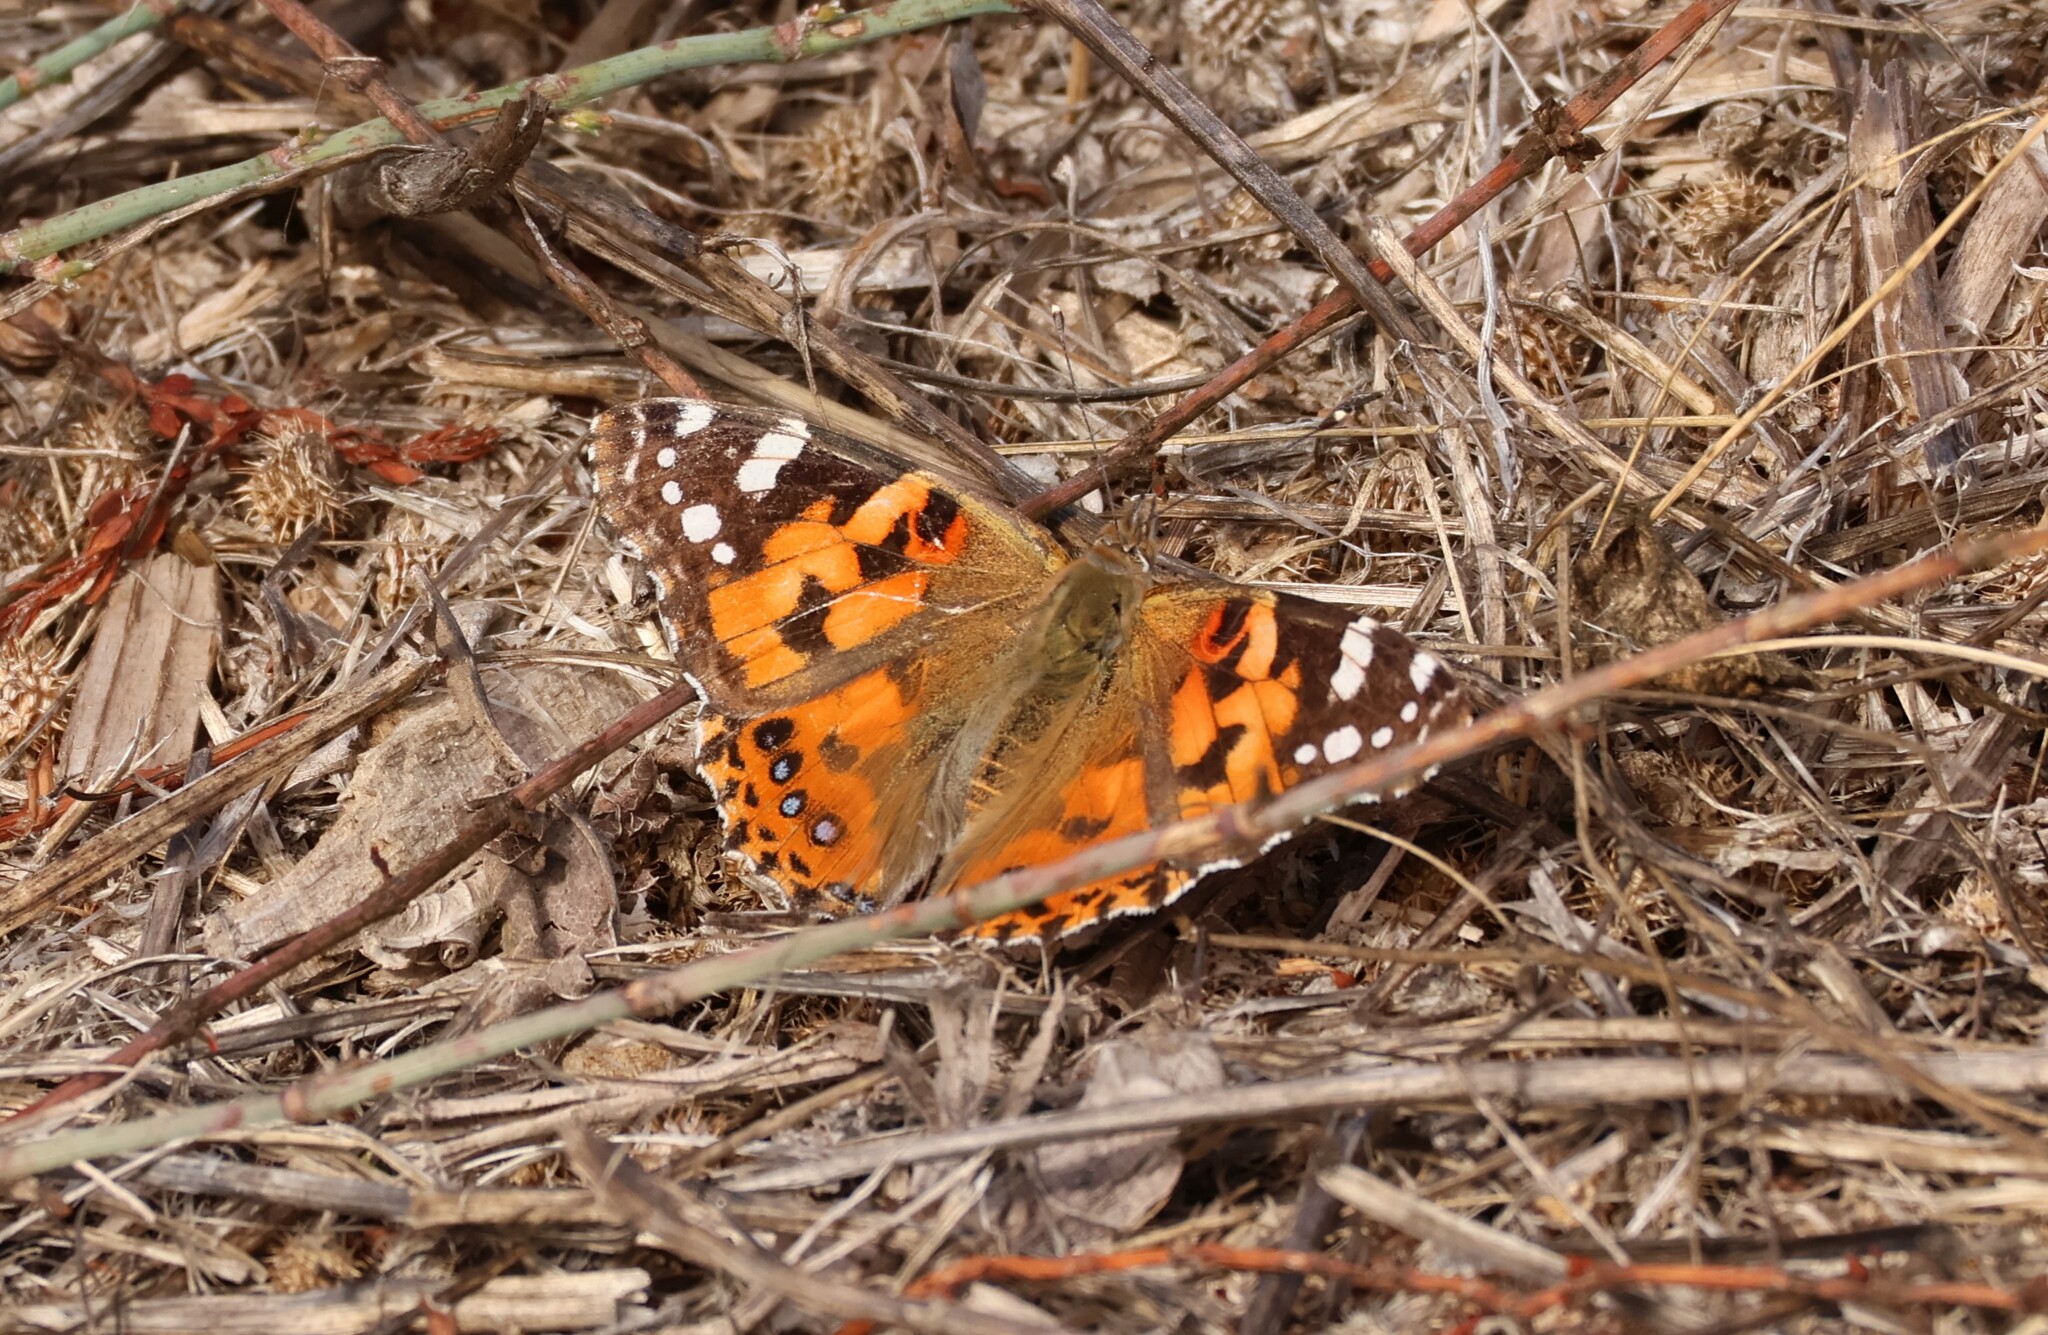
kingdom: Animalia
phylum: Arthropoda
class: Insecta
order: Lepidoptera
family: Nymphalidae
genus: Vanessa
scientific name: Vanessa cardui
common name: Painted lady
